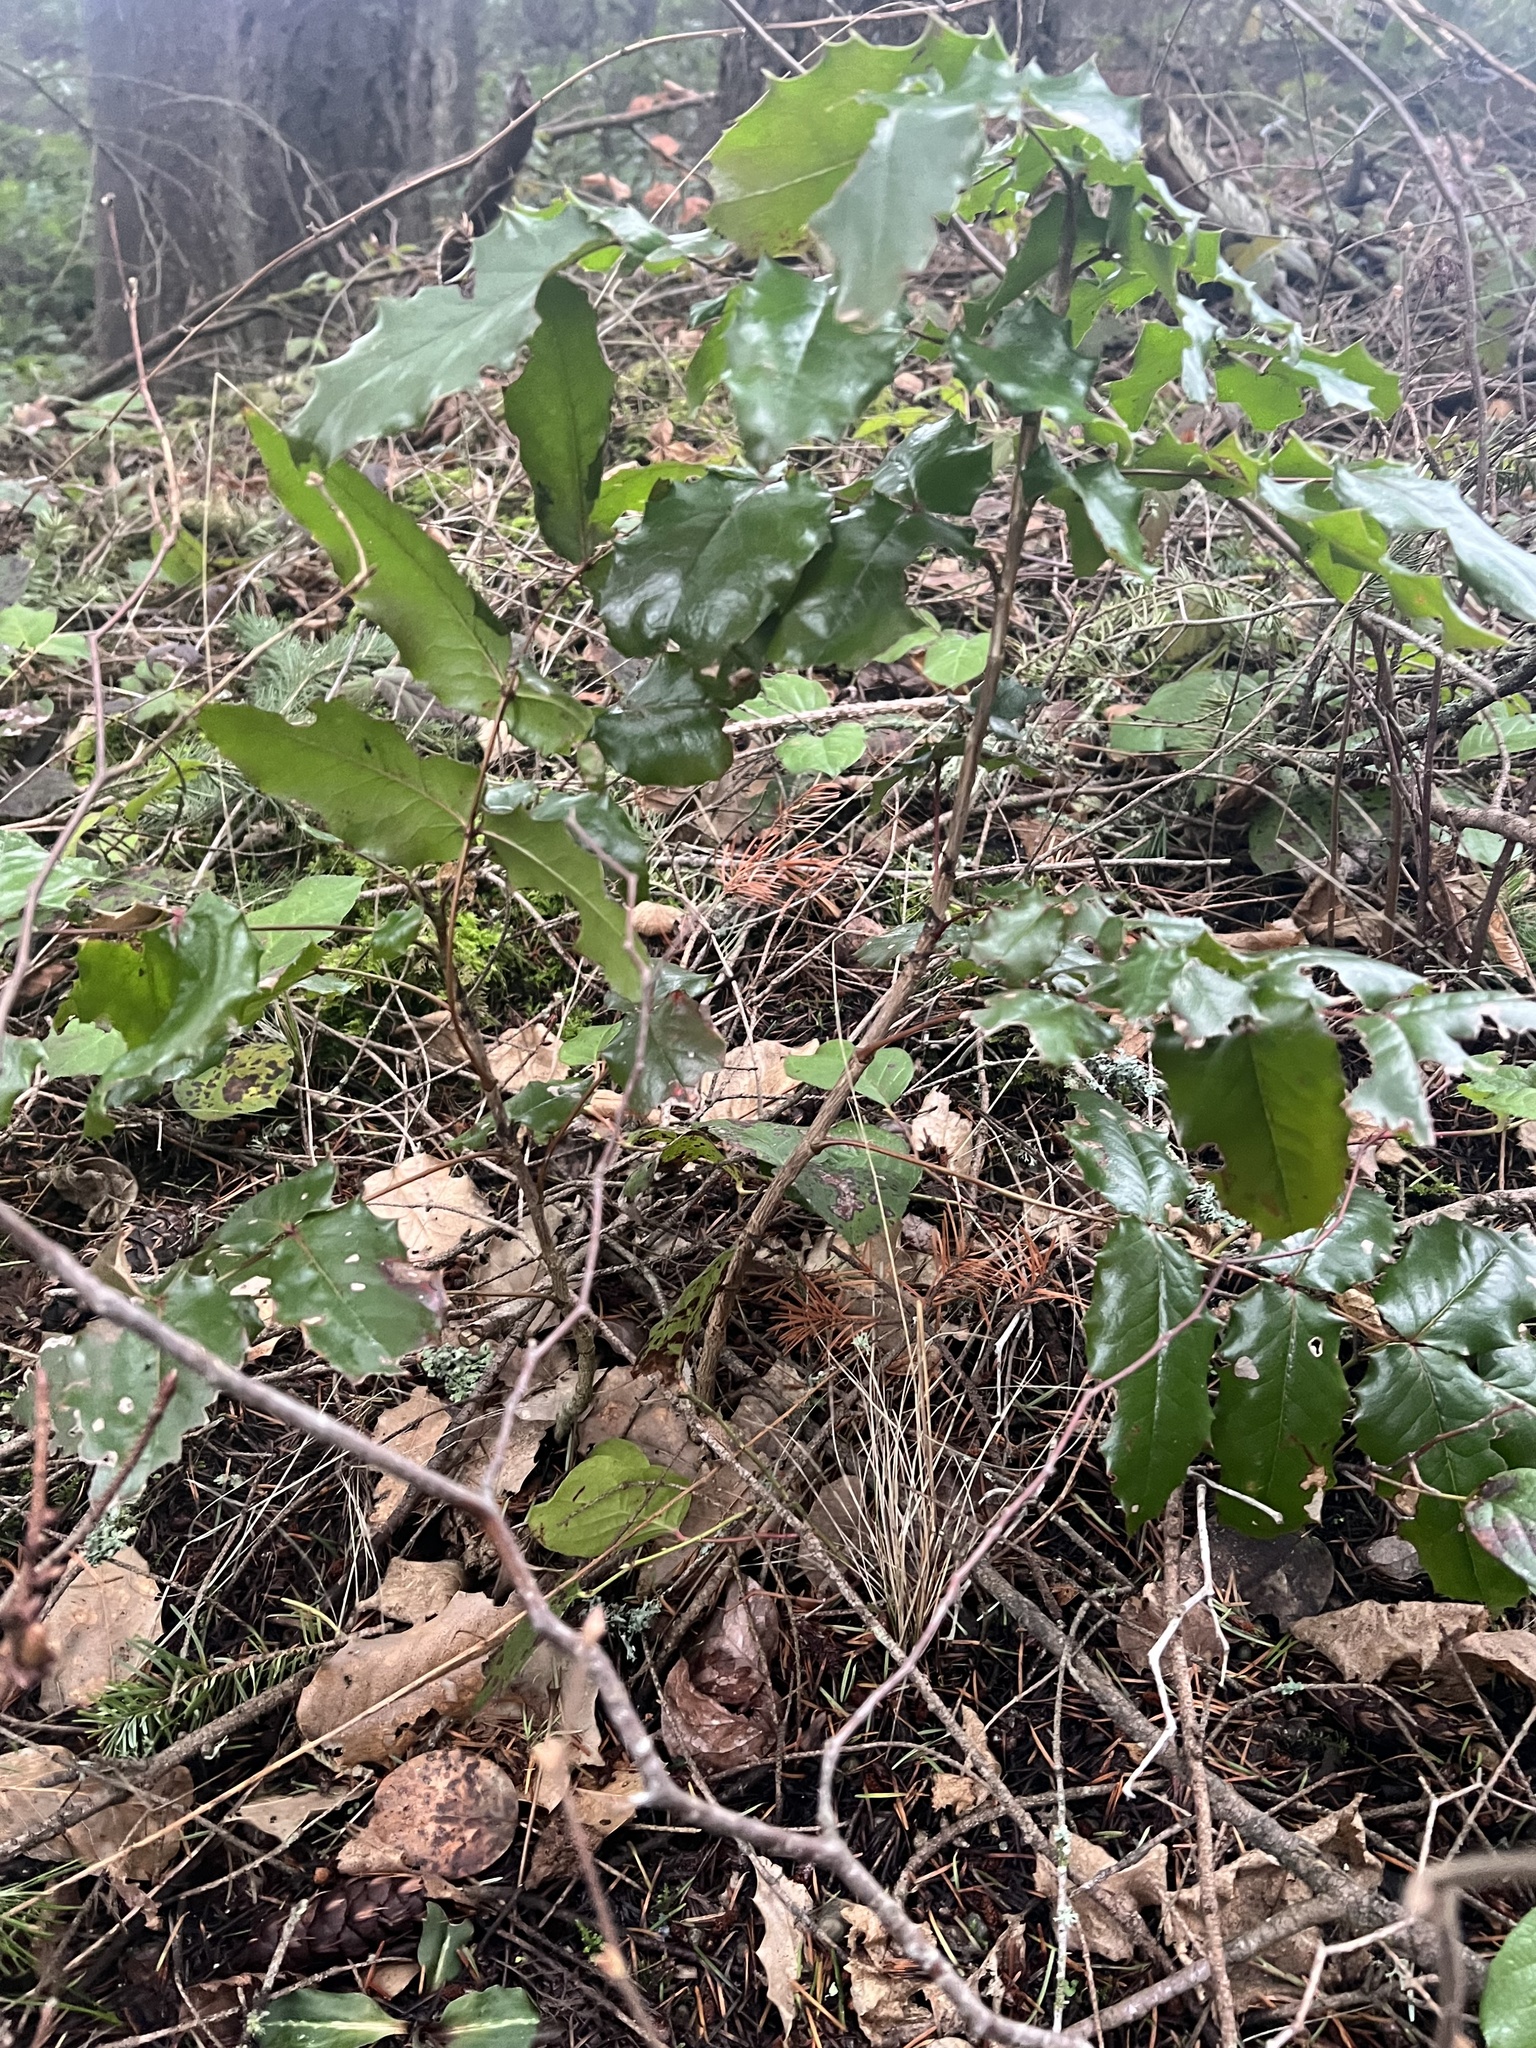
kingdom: Plantae
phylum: Tracheophyta
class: Magnoliopsida
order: Ranunculales
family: Berberidaceae
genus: Mahonia
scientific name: Mahonia aquifolium
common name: Oregon-grape
